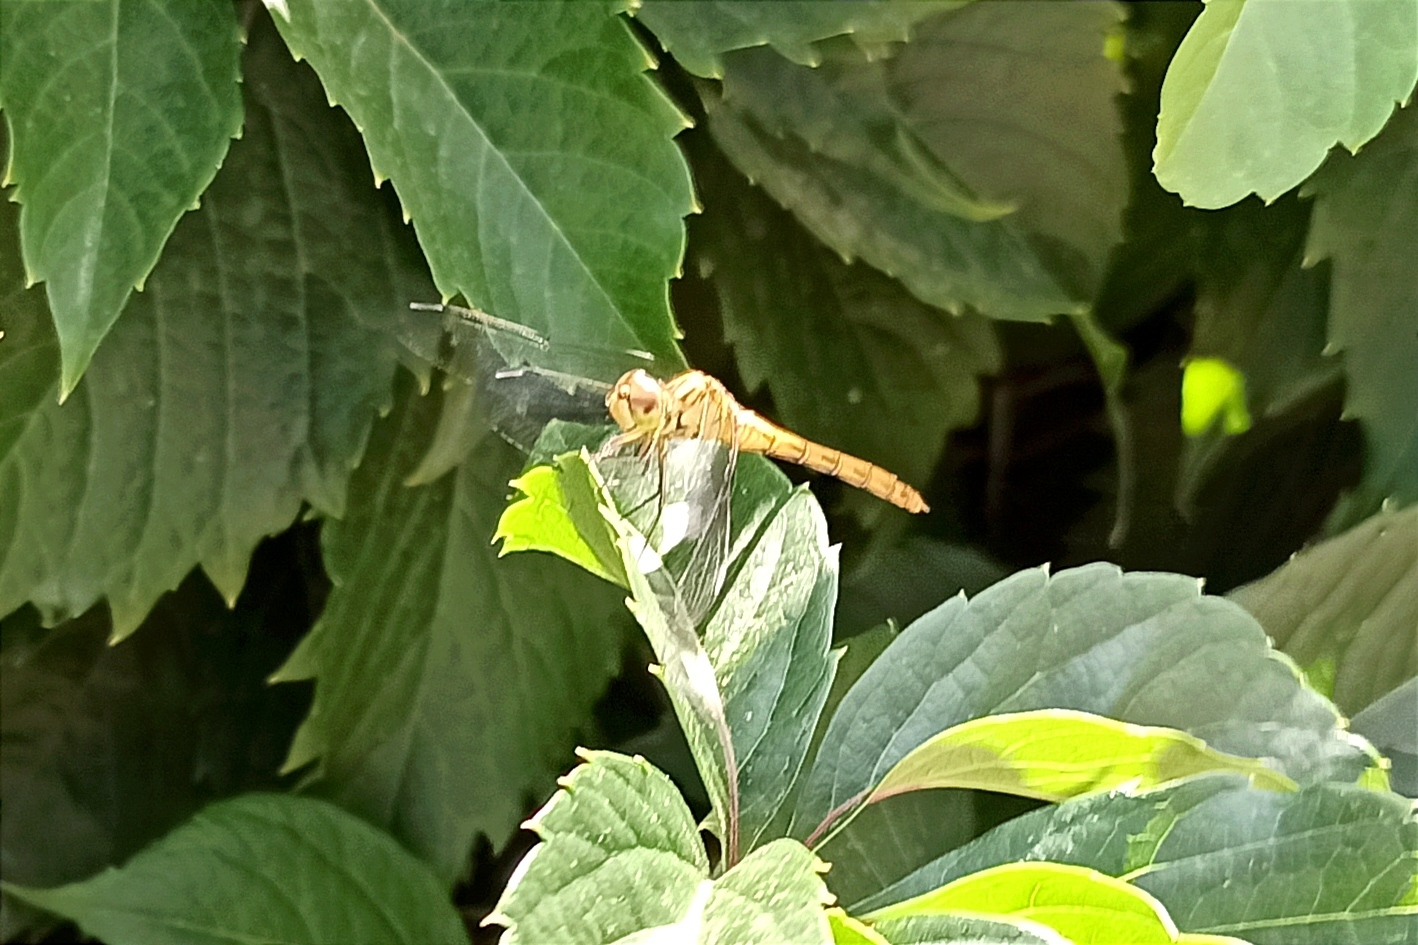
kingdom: Animalia
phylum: Arthropoda
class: Insecta
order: Odonata
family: Libellulidae
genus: Sympetrum
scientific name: Sympetrum meridionale
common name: Southern darter
